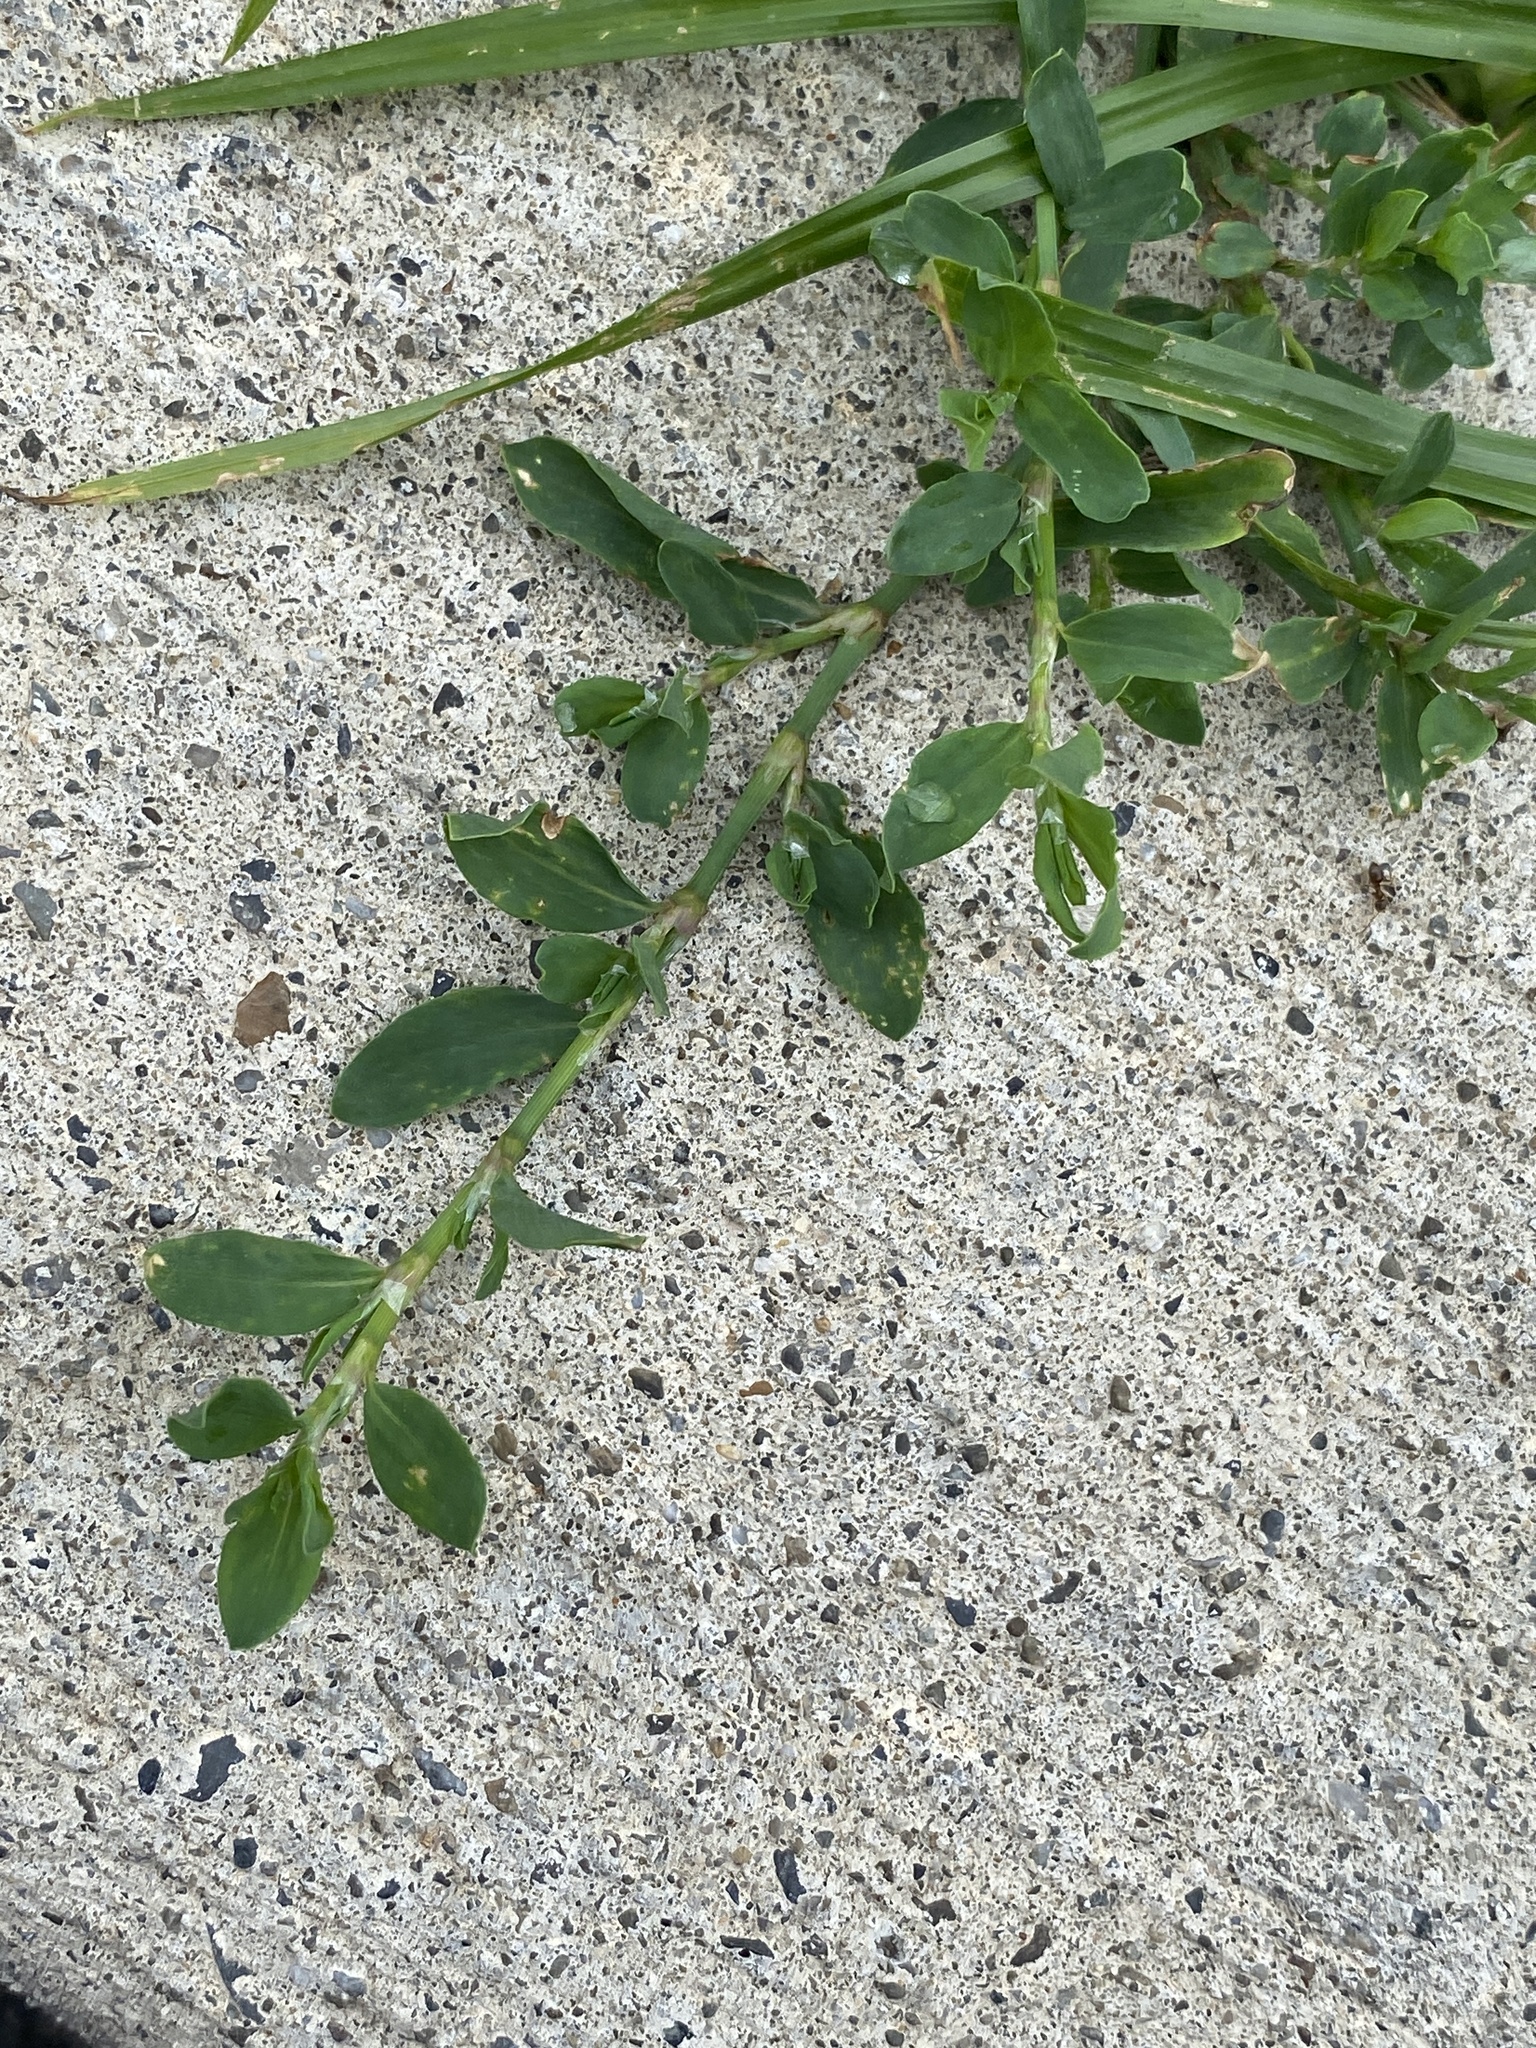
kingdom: Plantae
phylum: Tracheophyta
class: Magnoliopsida
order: Caryophyllales
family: Polygonaceae
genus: Polygonum
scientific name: Polygonum aviculare
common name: Prostrate knotweed
